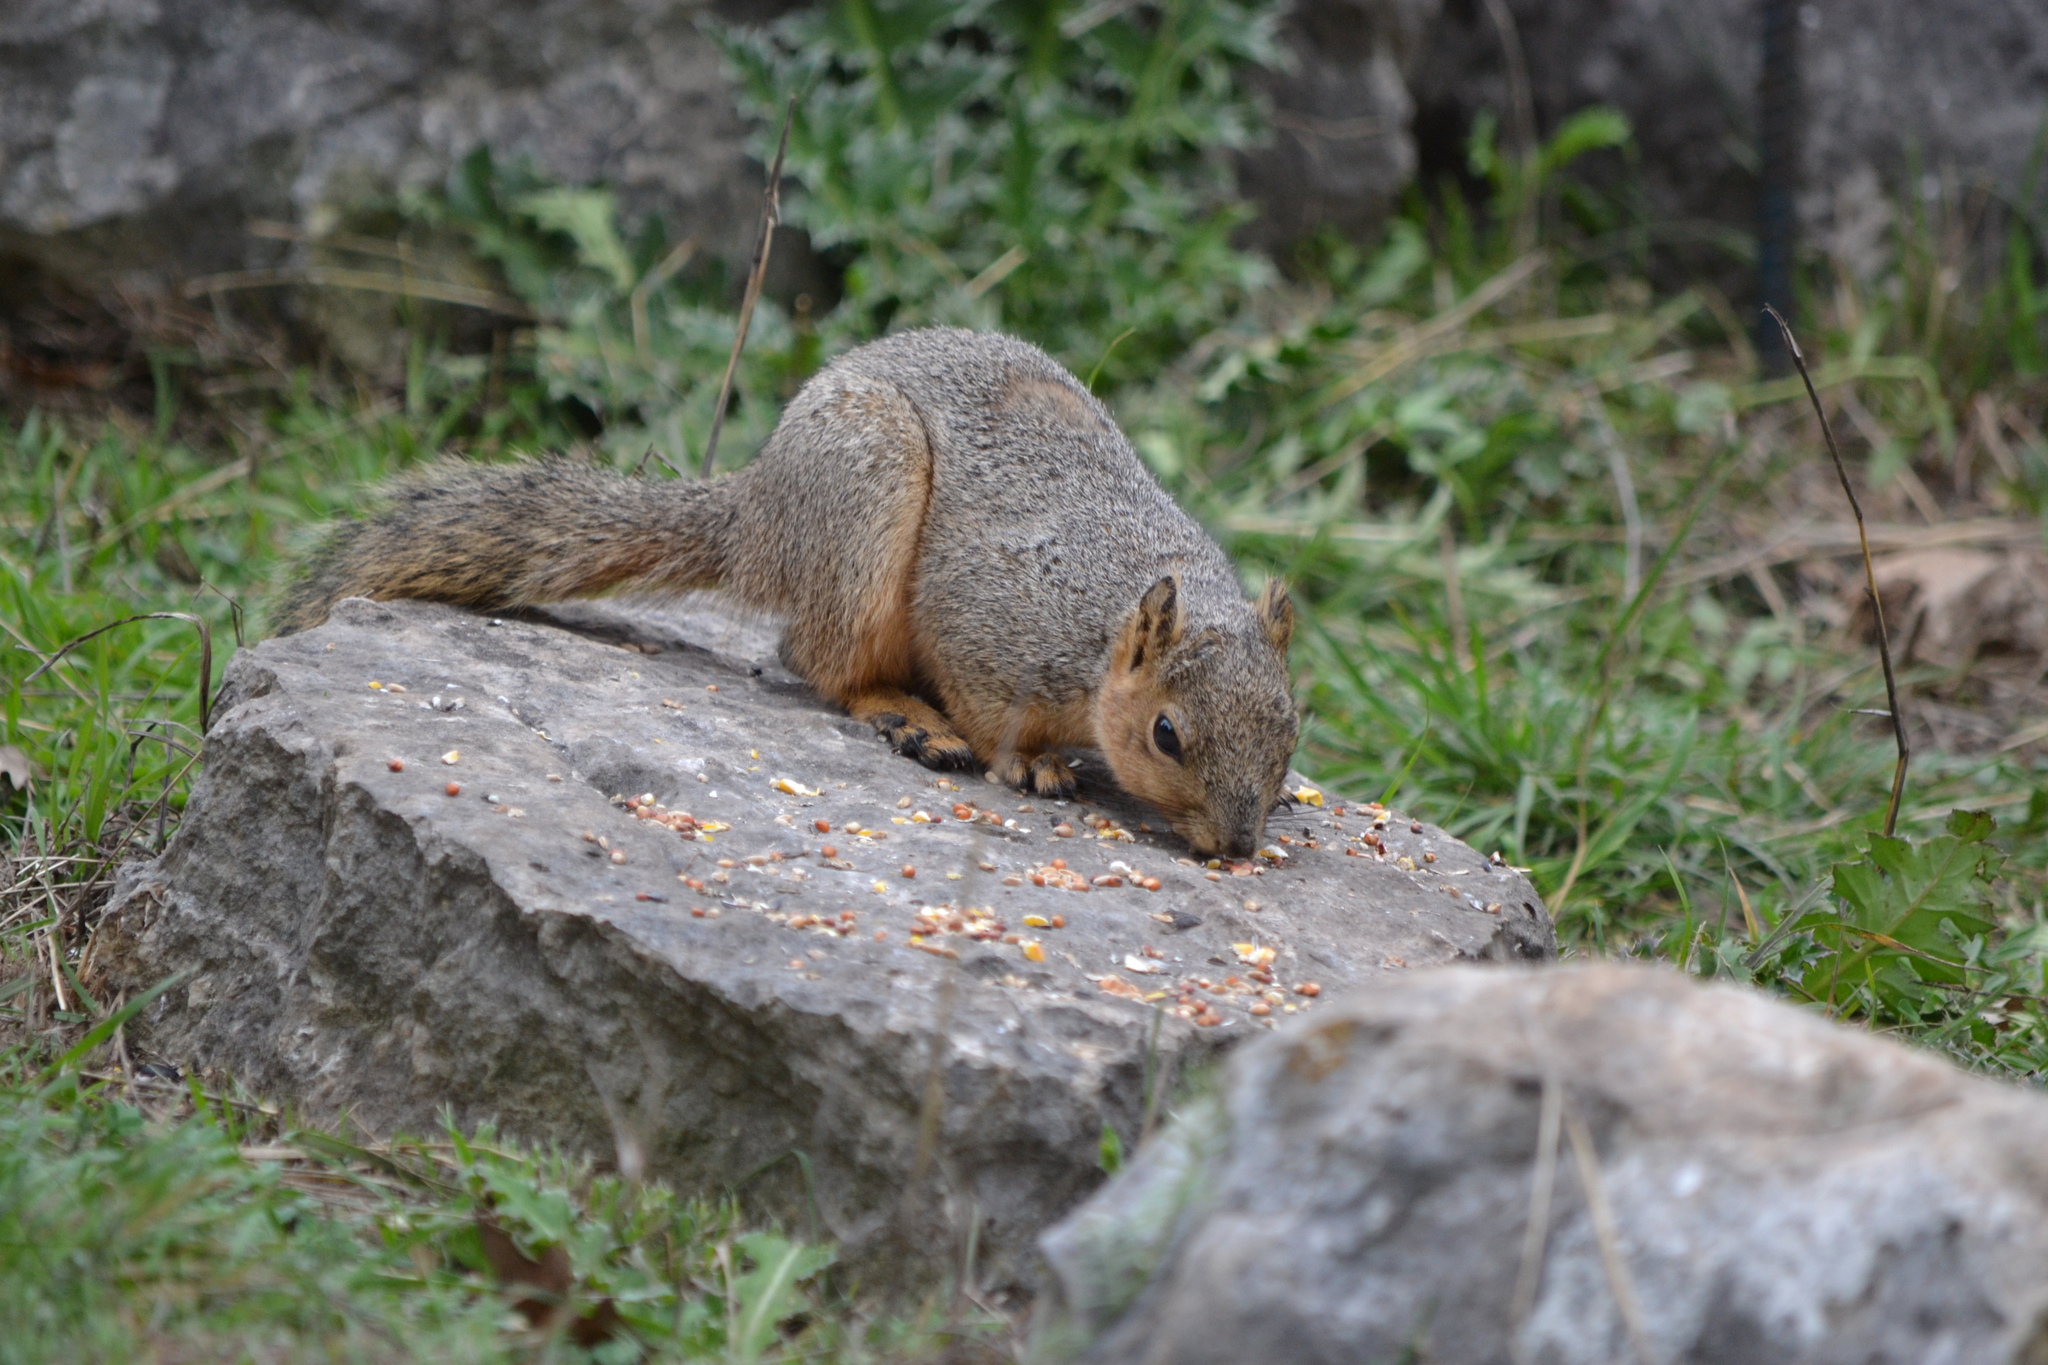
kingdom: Animalia
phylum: Chordata
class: Mammalia
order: Rodentia
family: Sciuridae
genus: Sciurus
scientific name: Sciurus niger
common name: Fox squirrel
